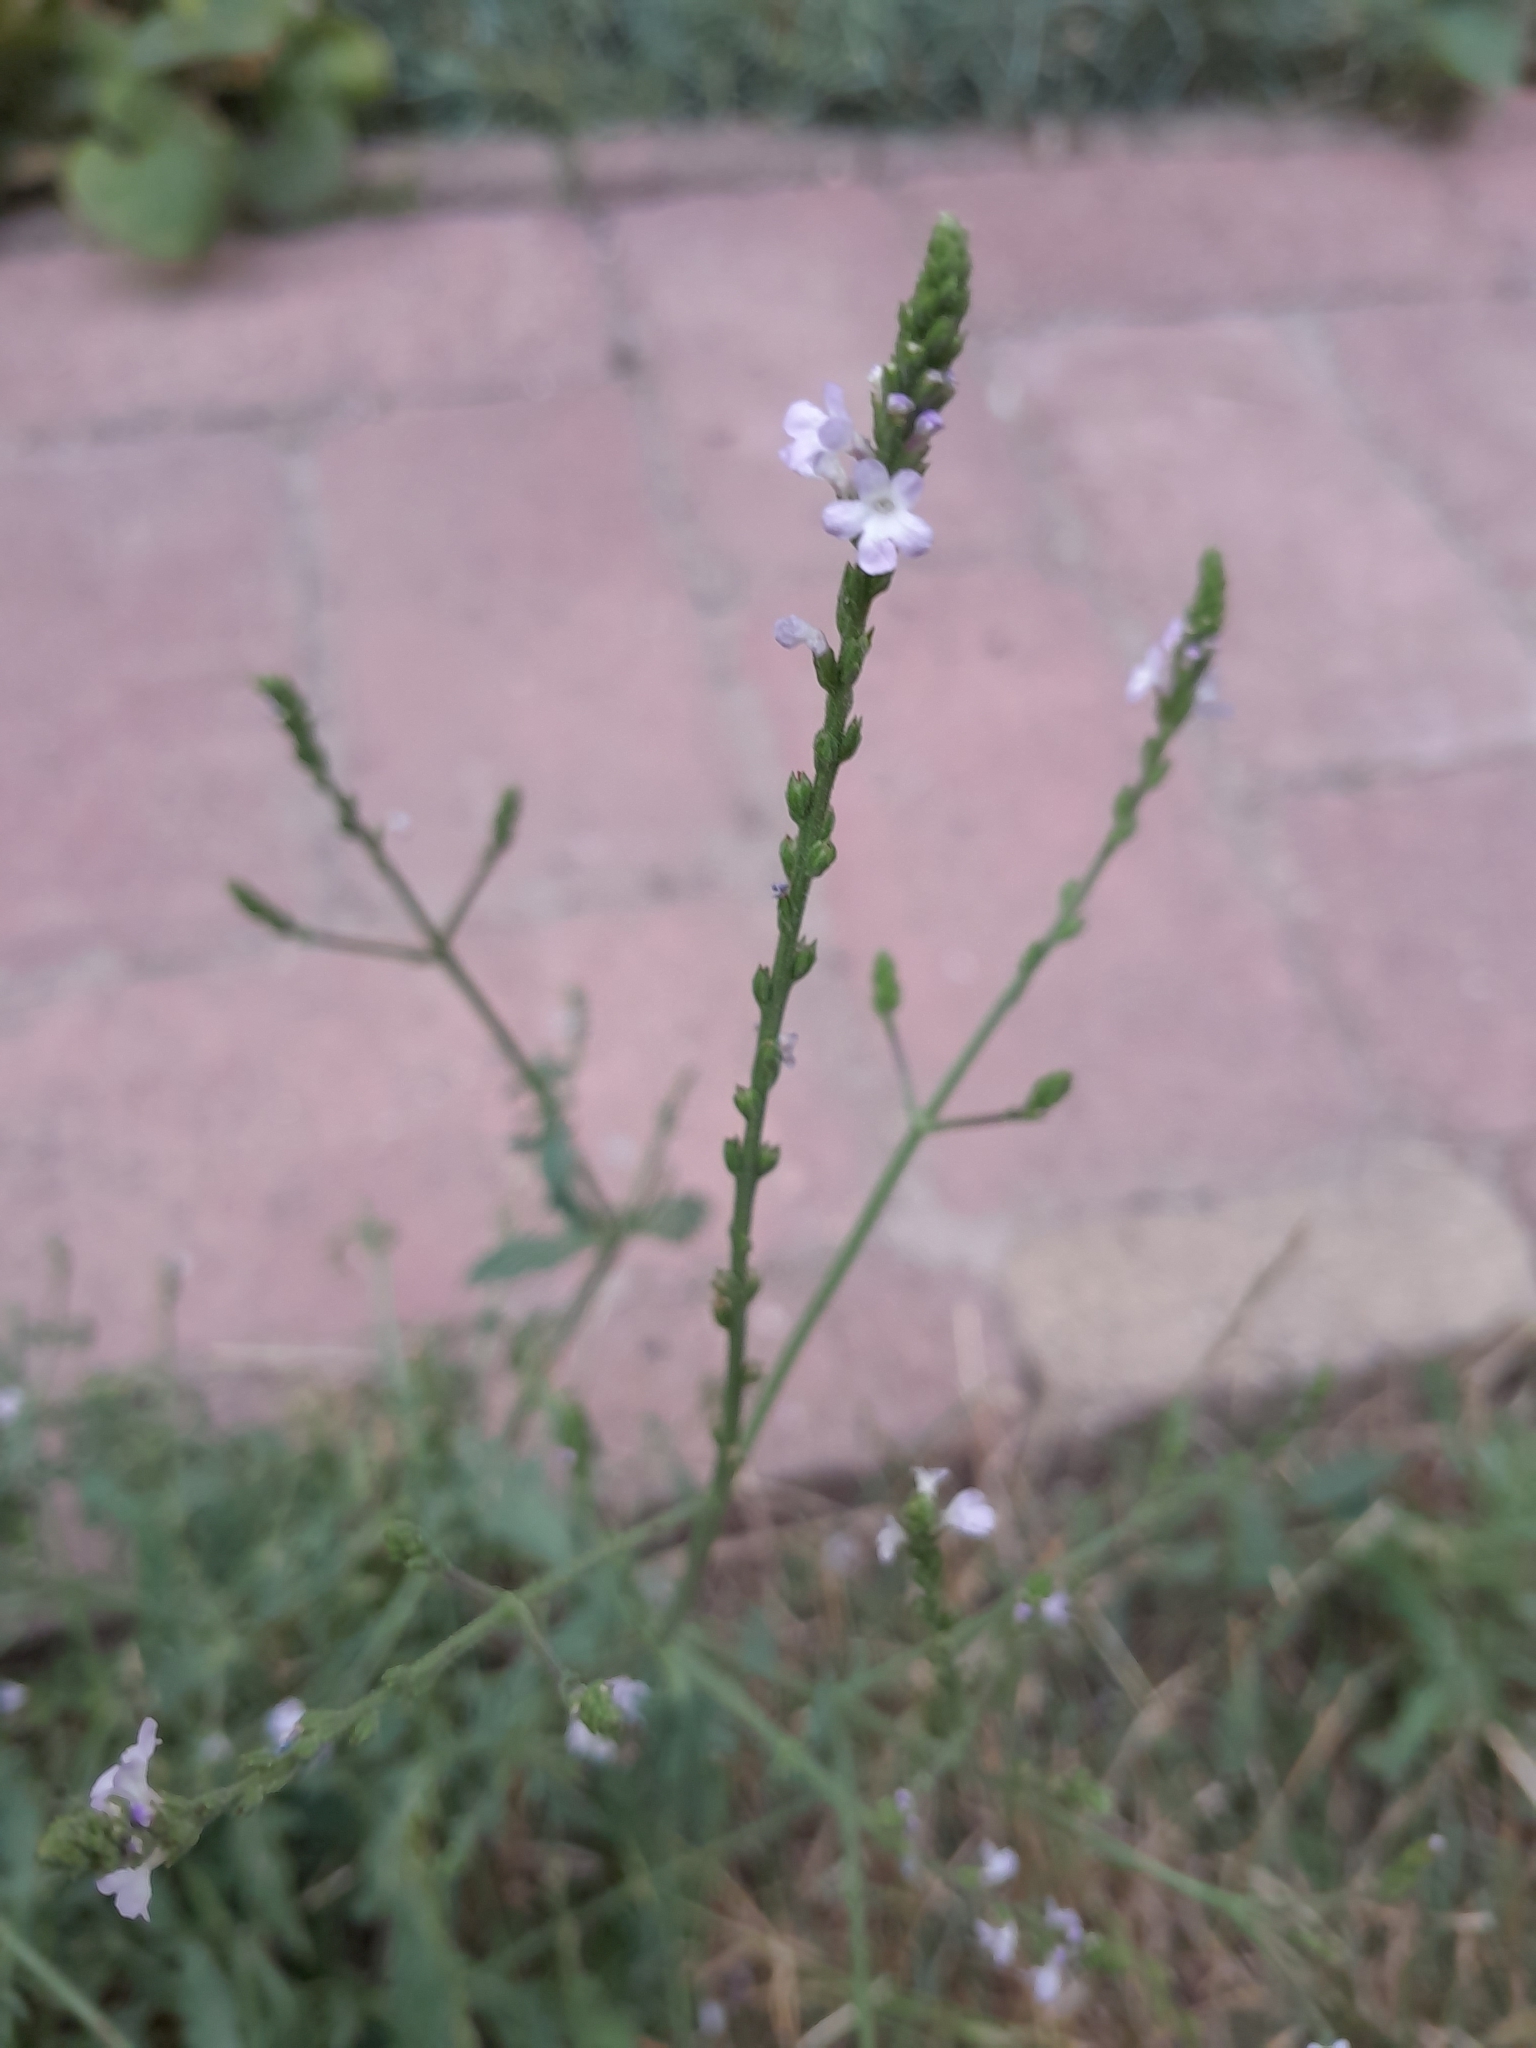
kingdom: Plantae
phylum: Tracheophyta
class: Magnoliopsida
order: Lamiales
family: Verbenaceae
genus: Verbena
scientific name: Verbena officinalis
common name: Vervain
